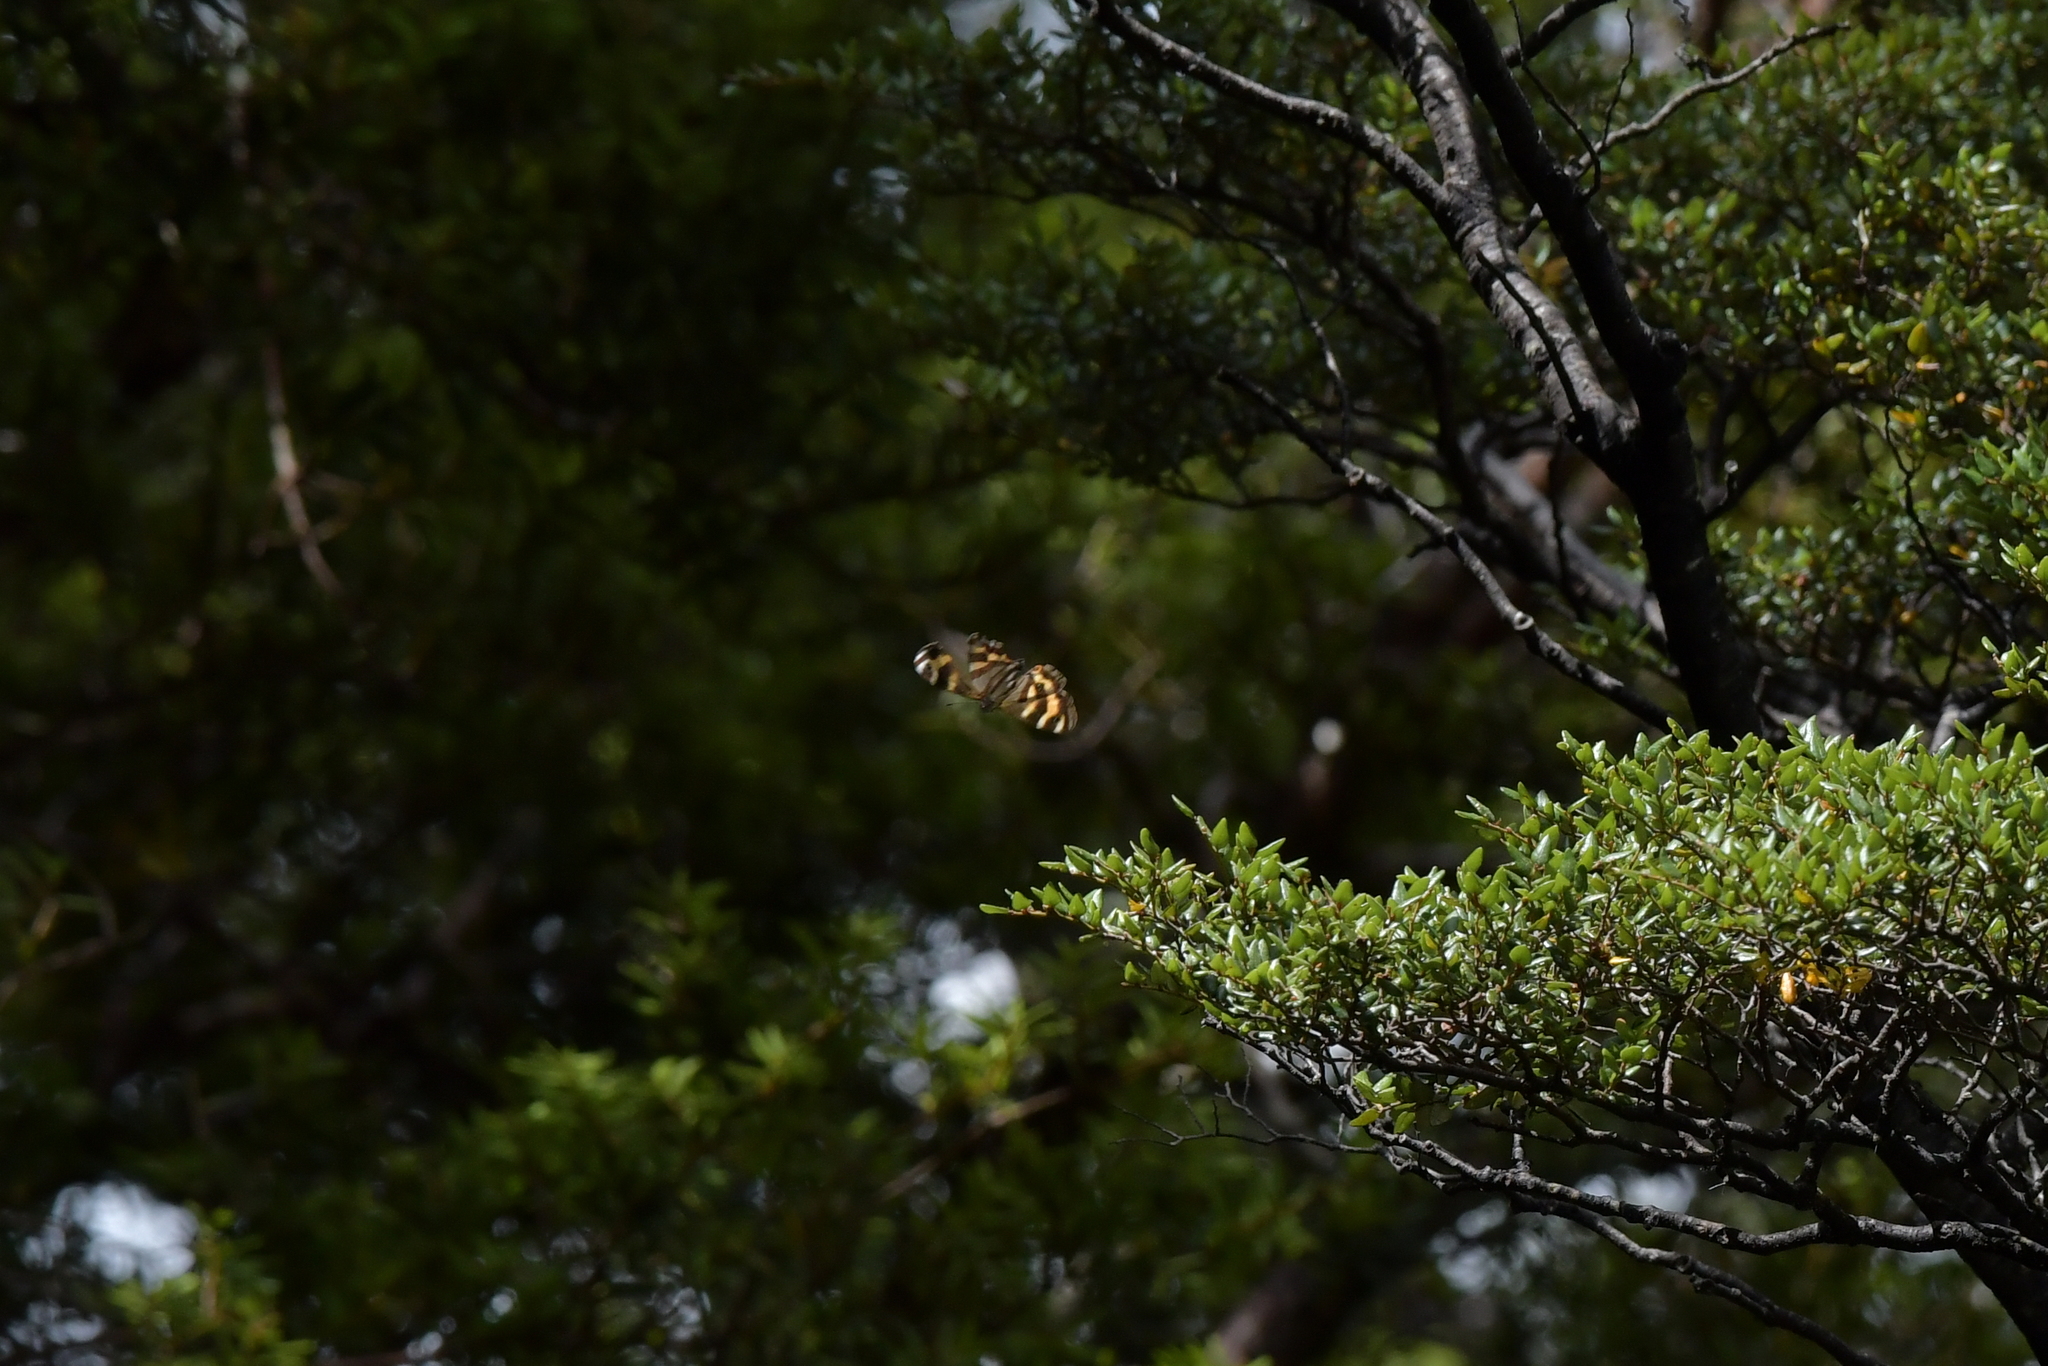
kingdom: Animalia
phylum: Arthropoda
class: Insecta
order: Lepidoptera
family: Nymphalidae
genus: Dodonidia
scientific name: Dodonidia helmsii
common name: Helm's butterfly
